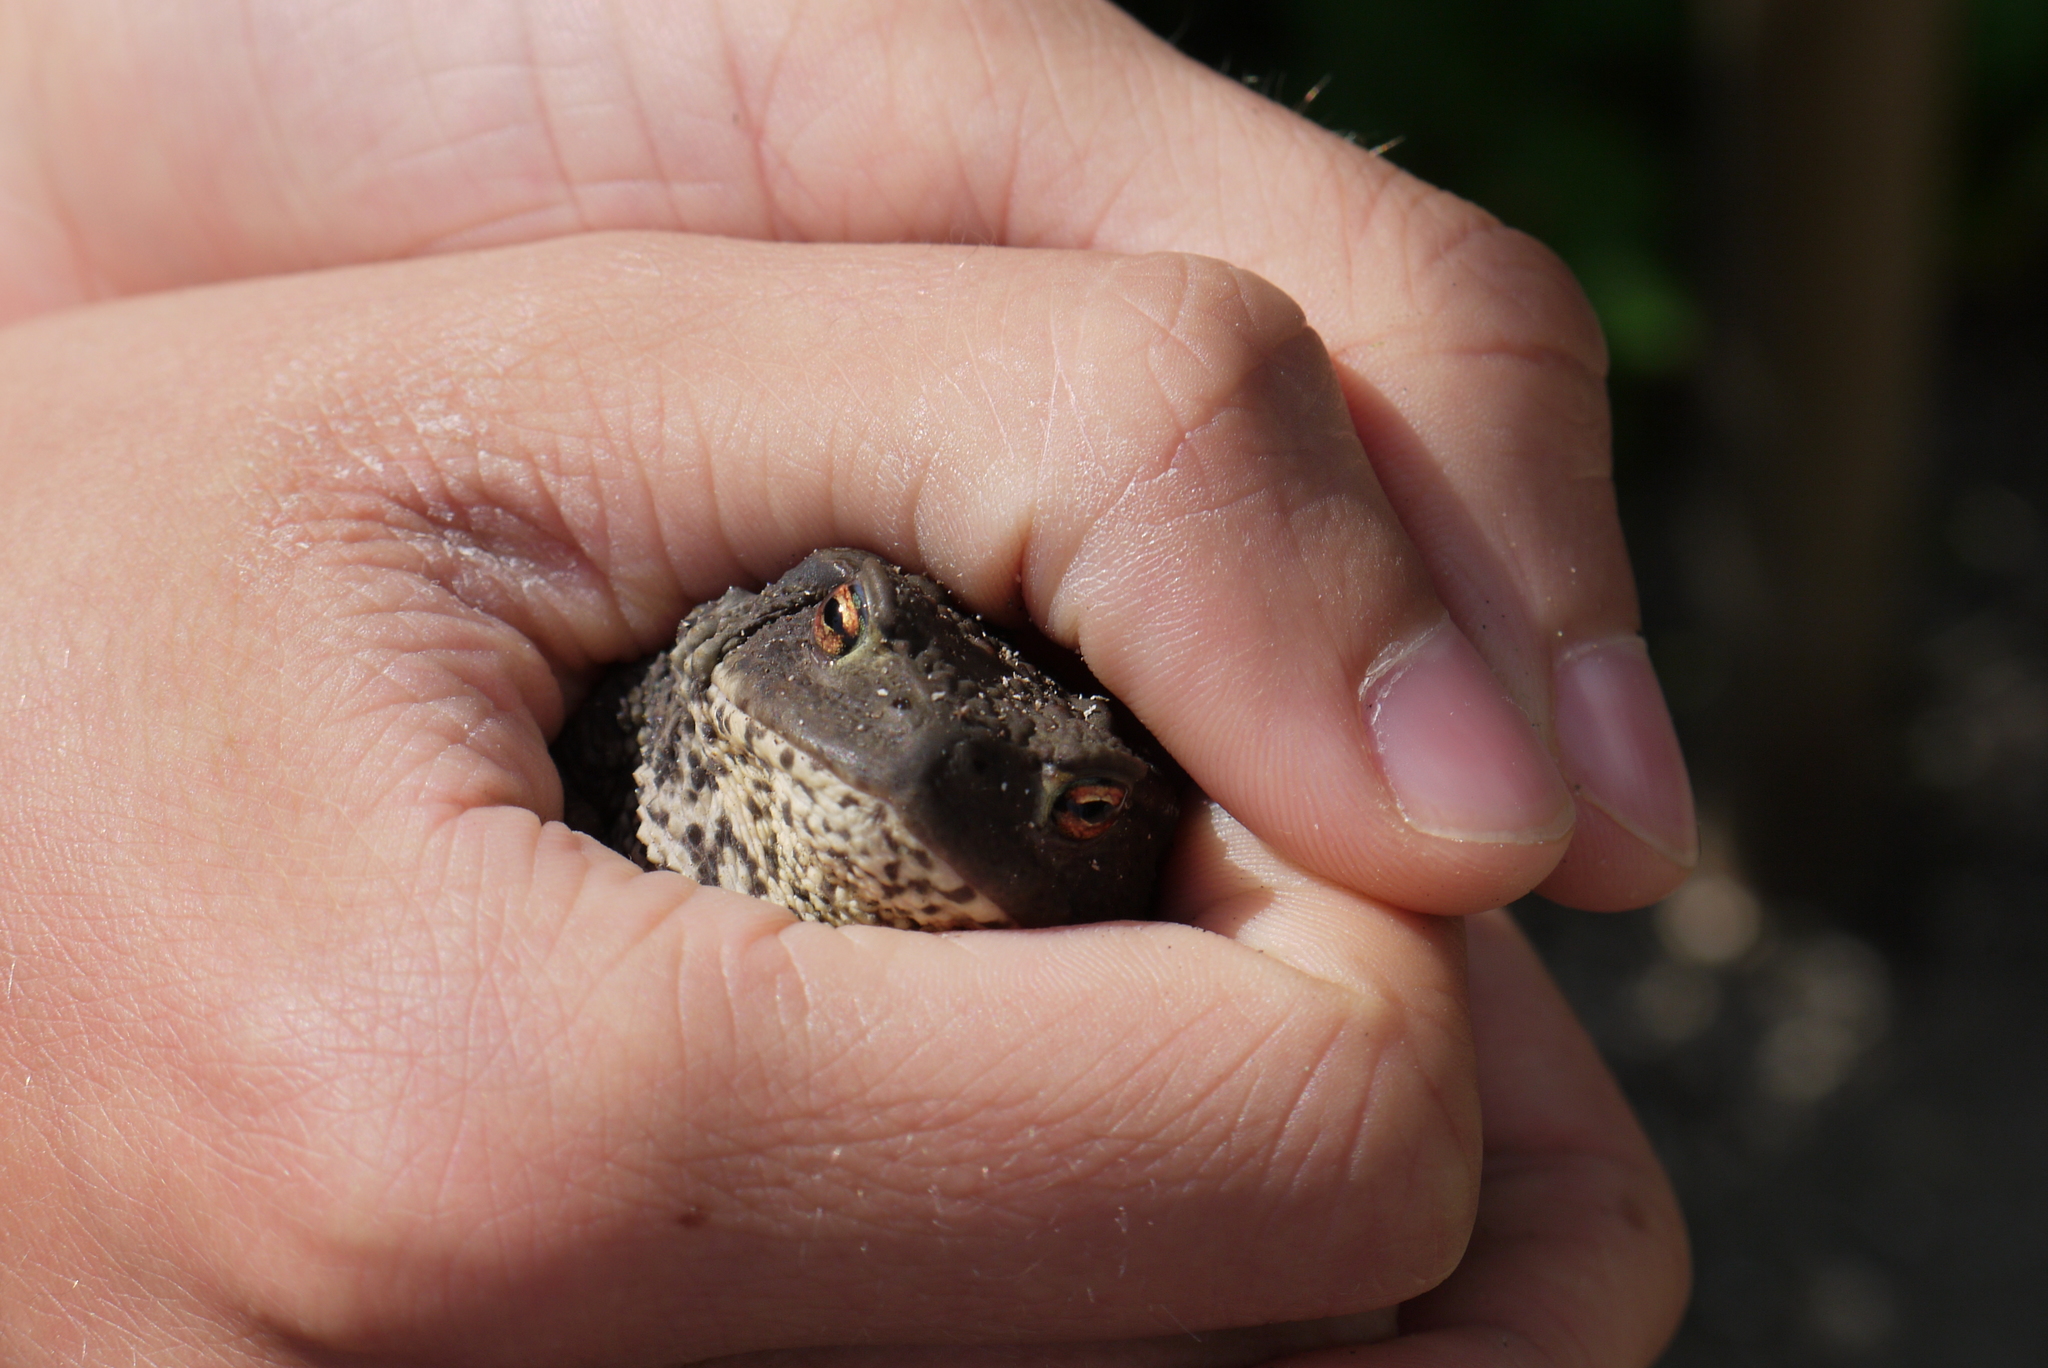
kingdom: Animalia
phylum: Chordata
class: Amphibia
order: Anura
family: Bufonidae
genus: Bufo
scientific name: Bufo bufo
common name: Common toad
